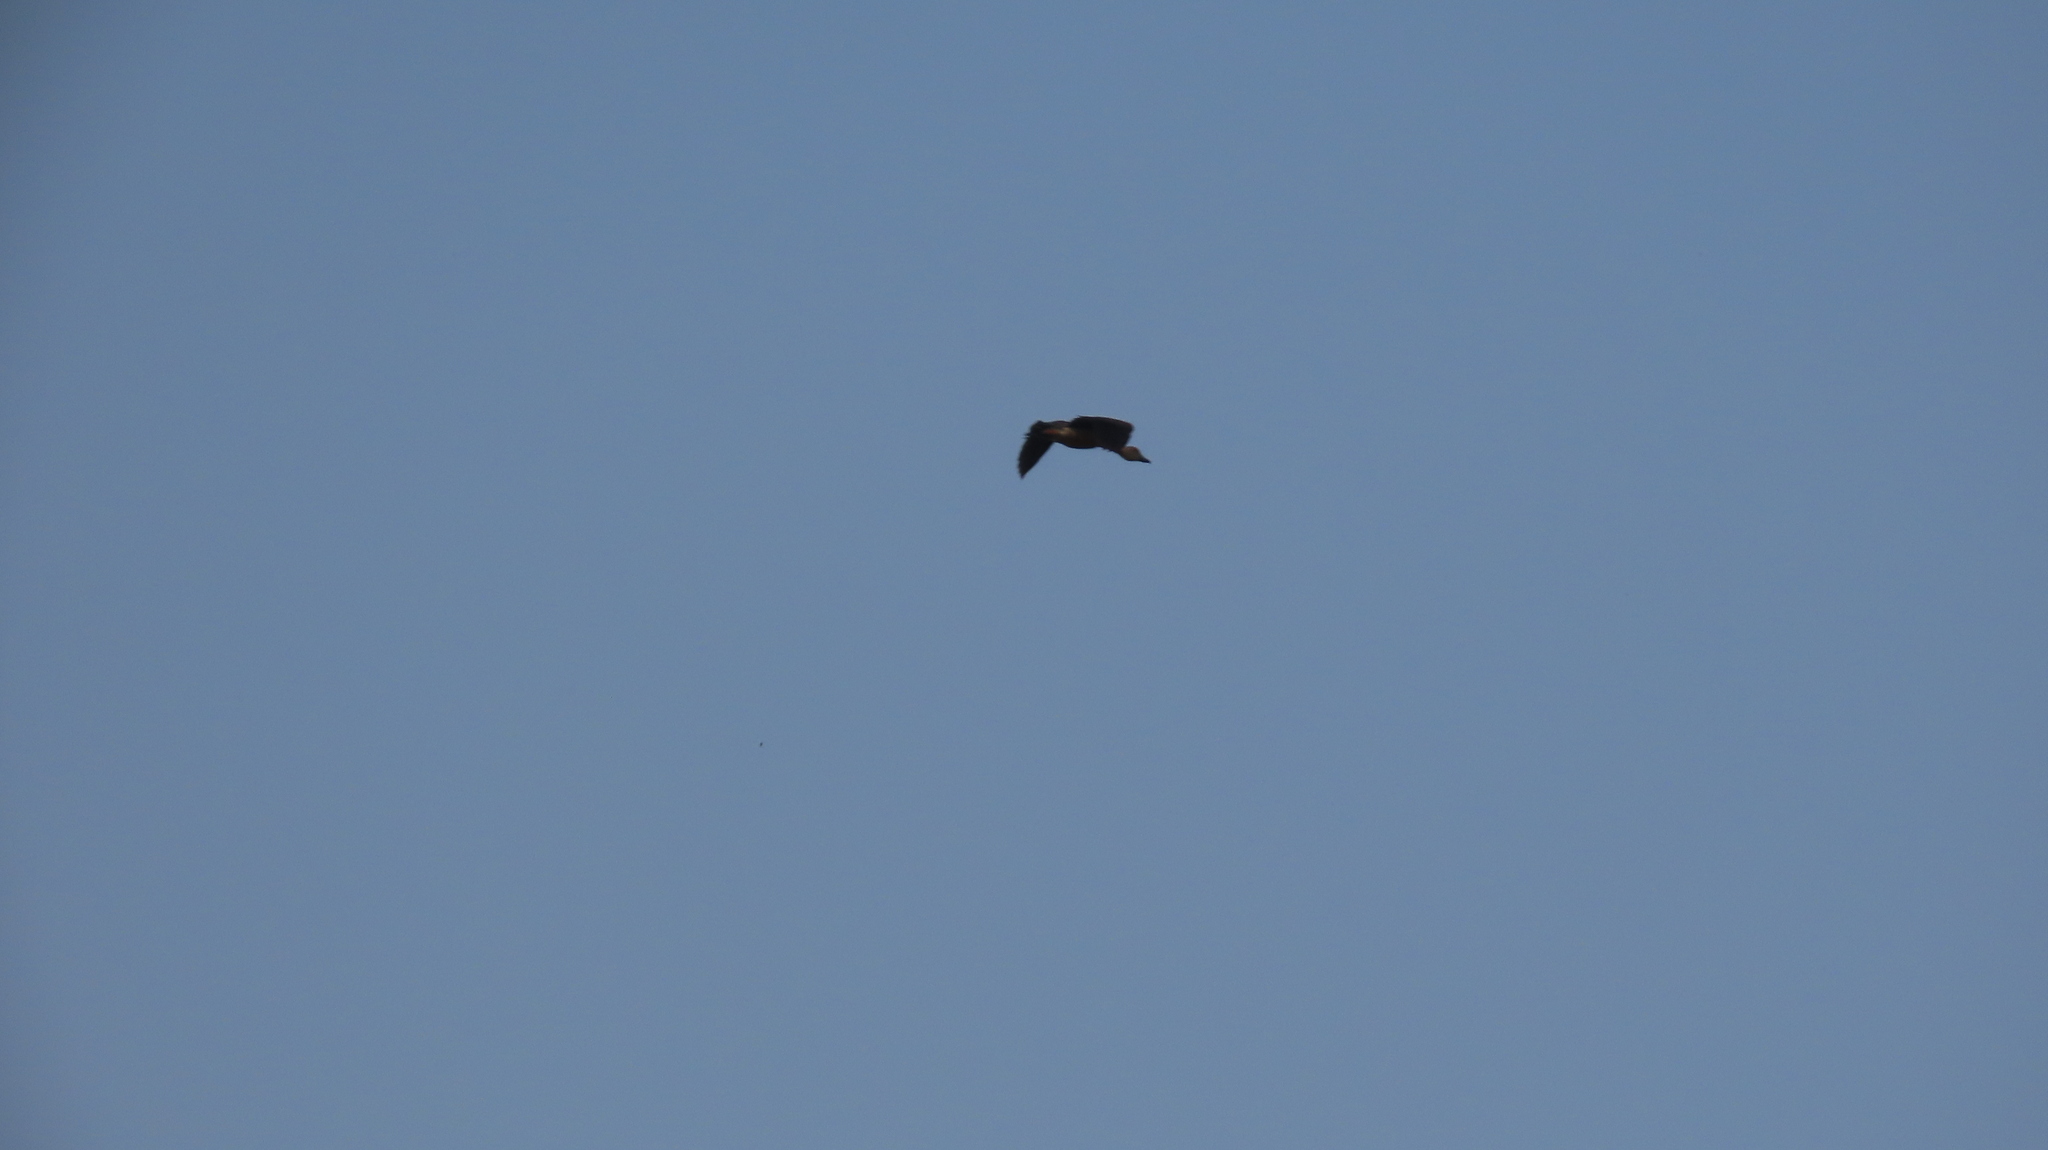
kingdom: Animalia
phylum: Chordata
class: Aves
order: Anseriformes
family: Anatidae
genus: Dendrocygna
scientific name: Dendrocygna javanica
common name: Lesser whistling-duck
